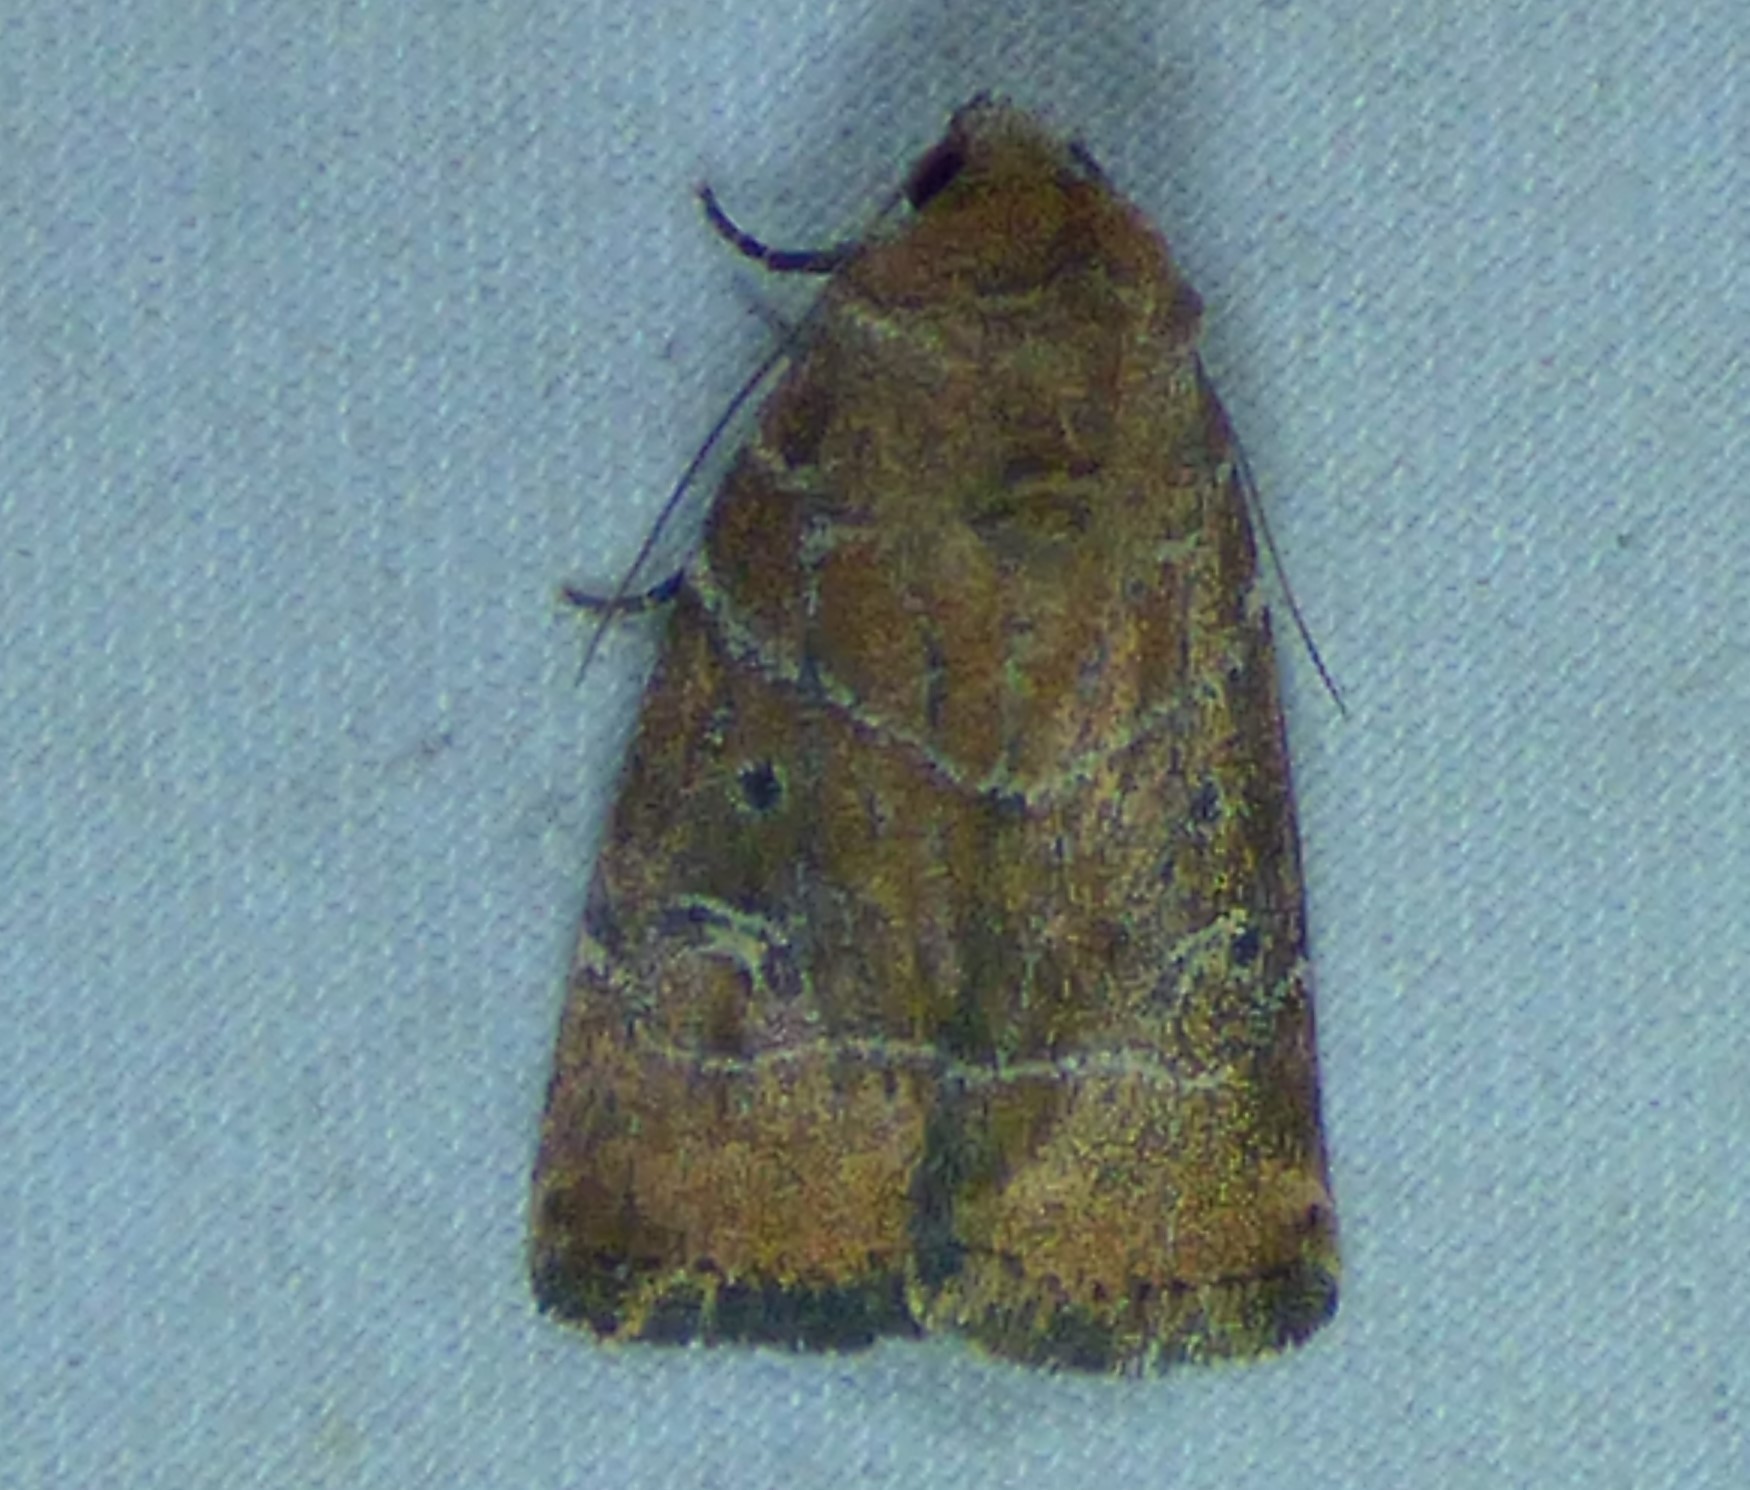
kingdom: Animalia
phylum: Arthropoda
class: Insecta
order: Lepidoptera
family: Noctuidae
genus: Elaphria
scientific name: Elaphria grata
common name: Grateful midget moth
